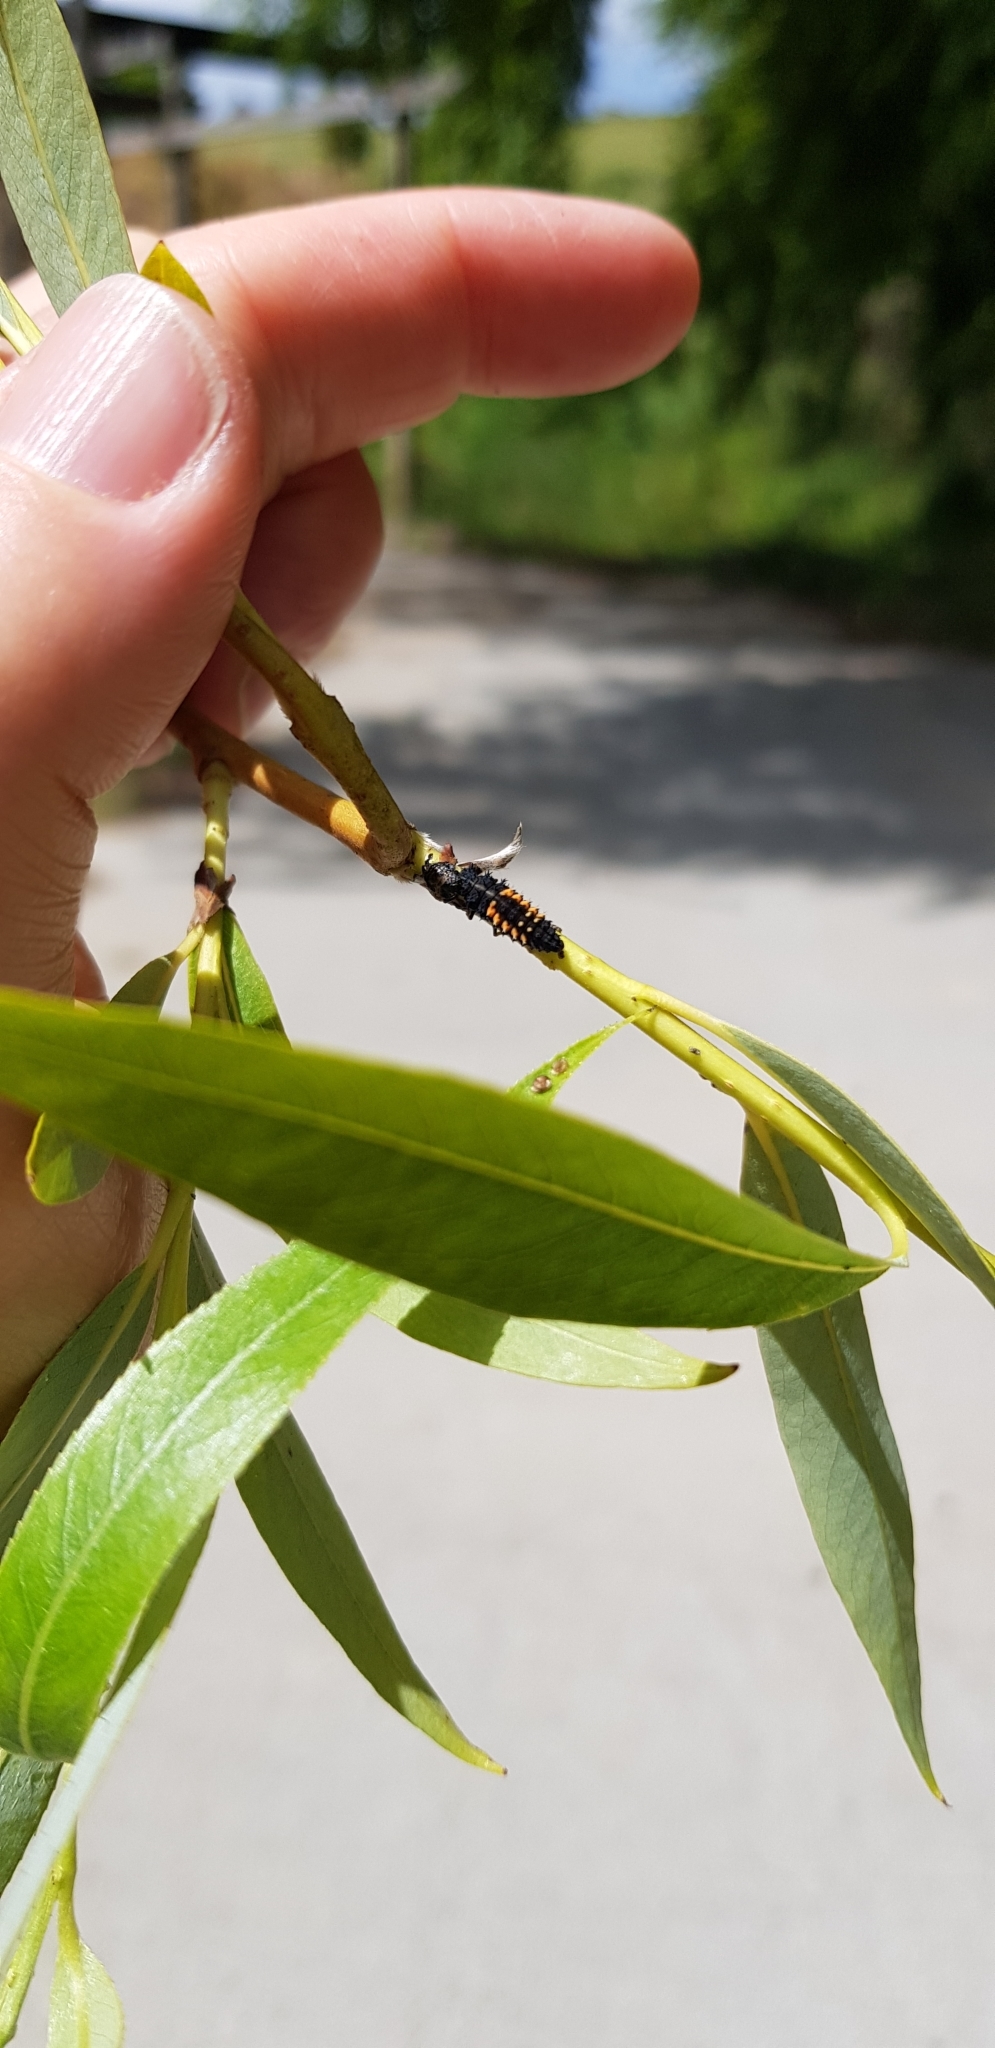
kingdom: Animalia
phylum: Arthropoda
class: Insecta
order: Coleoptera
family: Coccinellidae
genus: Harmonia
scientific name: Harmonia axyridis
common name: Harlequin ladybird
